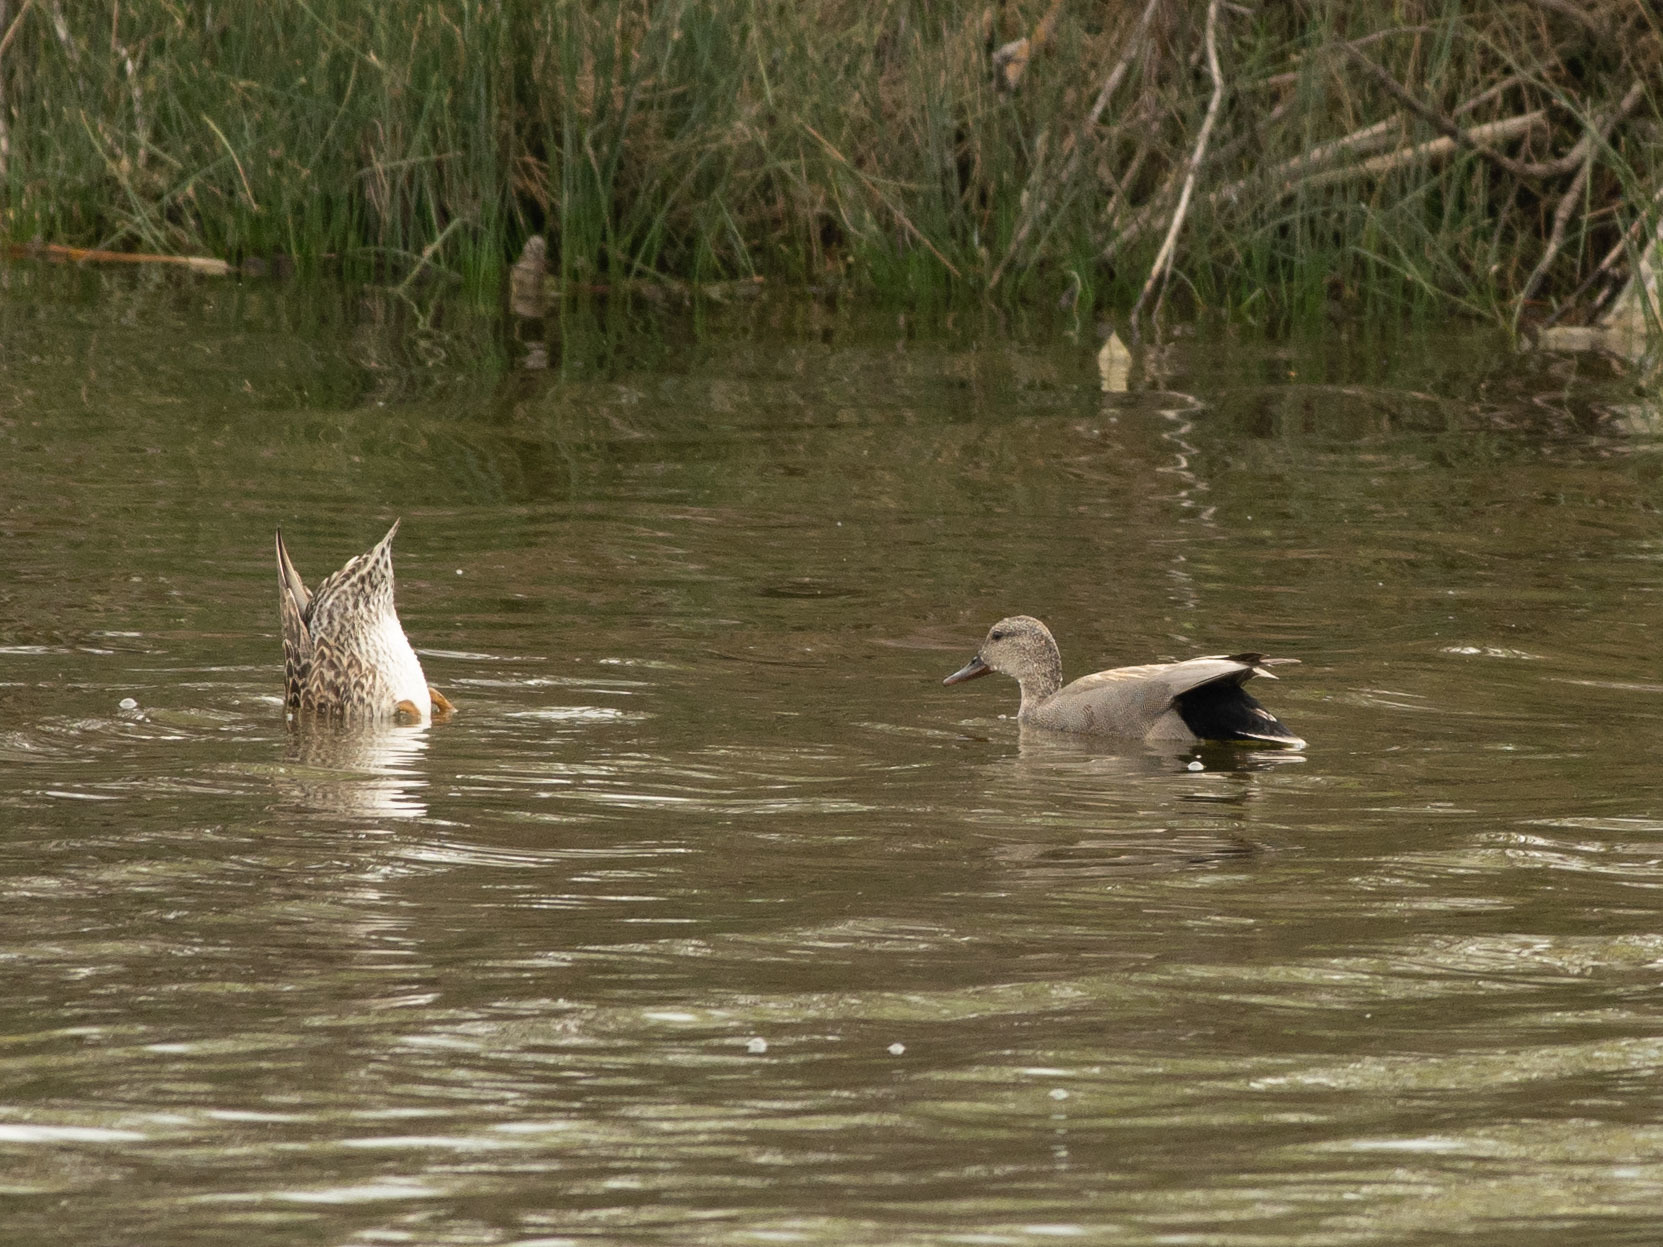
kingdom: Animalia
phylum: Chordata
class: Aves
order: Anseriformes
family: Anatidae
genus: Mareca
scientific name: Mareca strepera
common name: Gadwall
